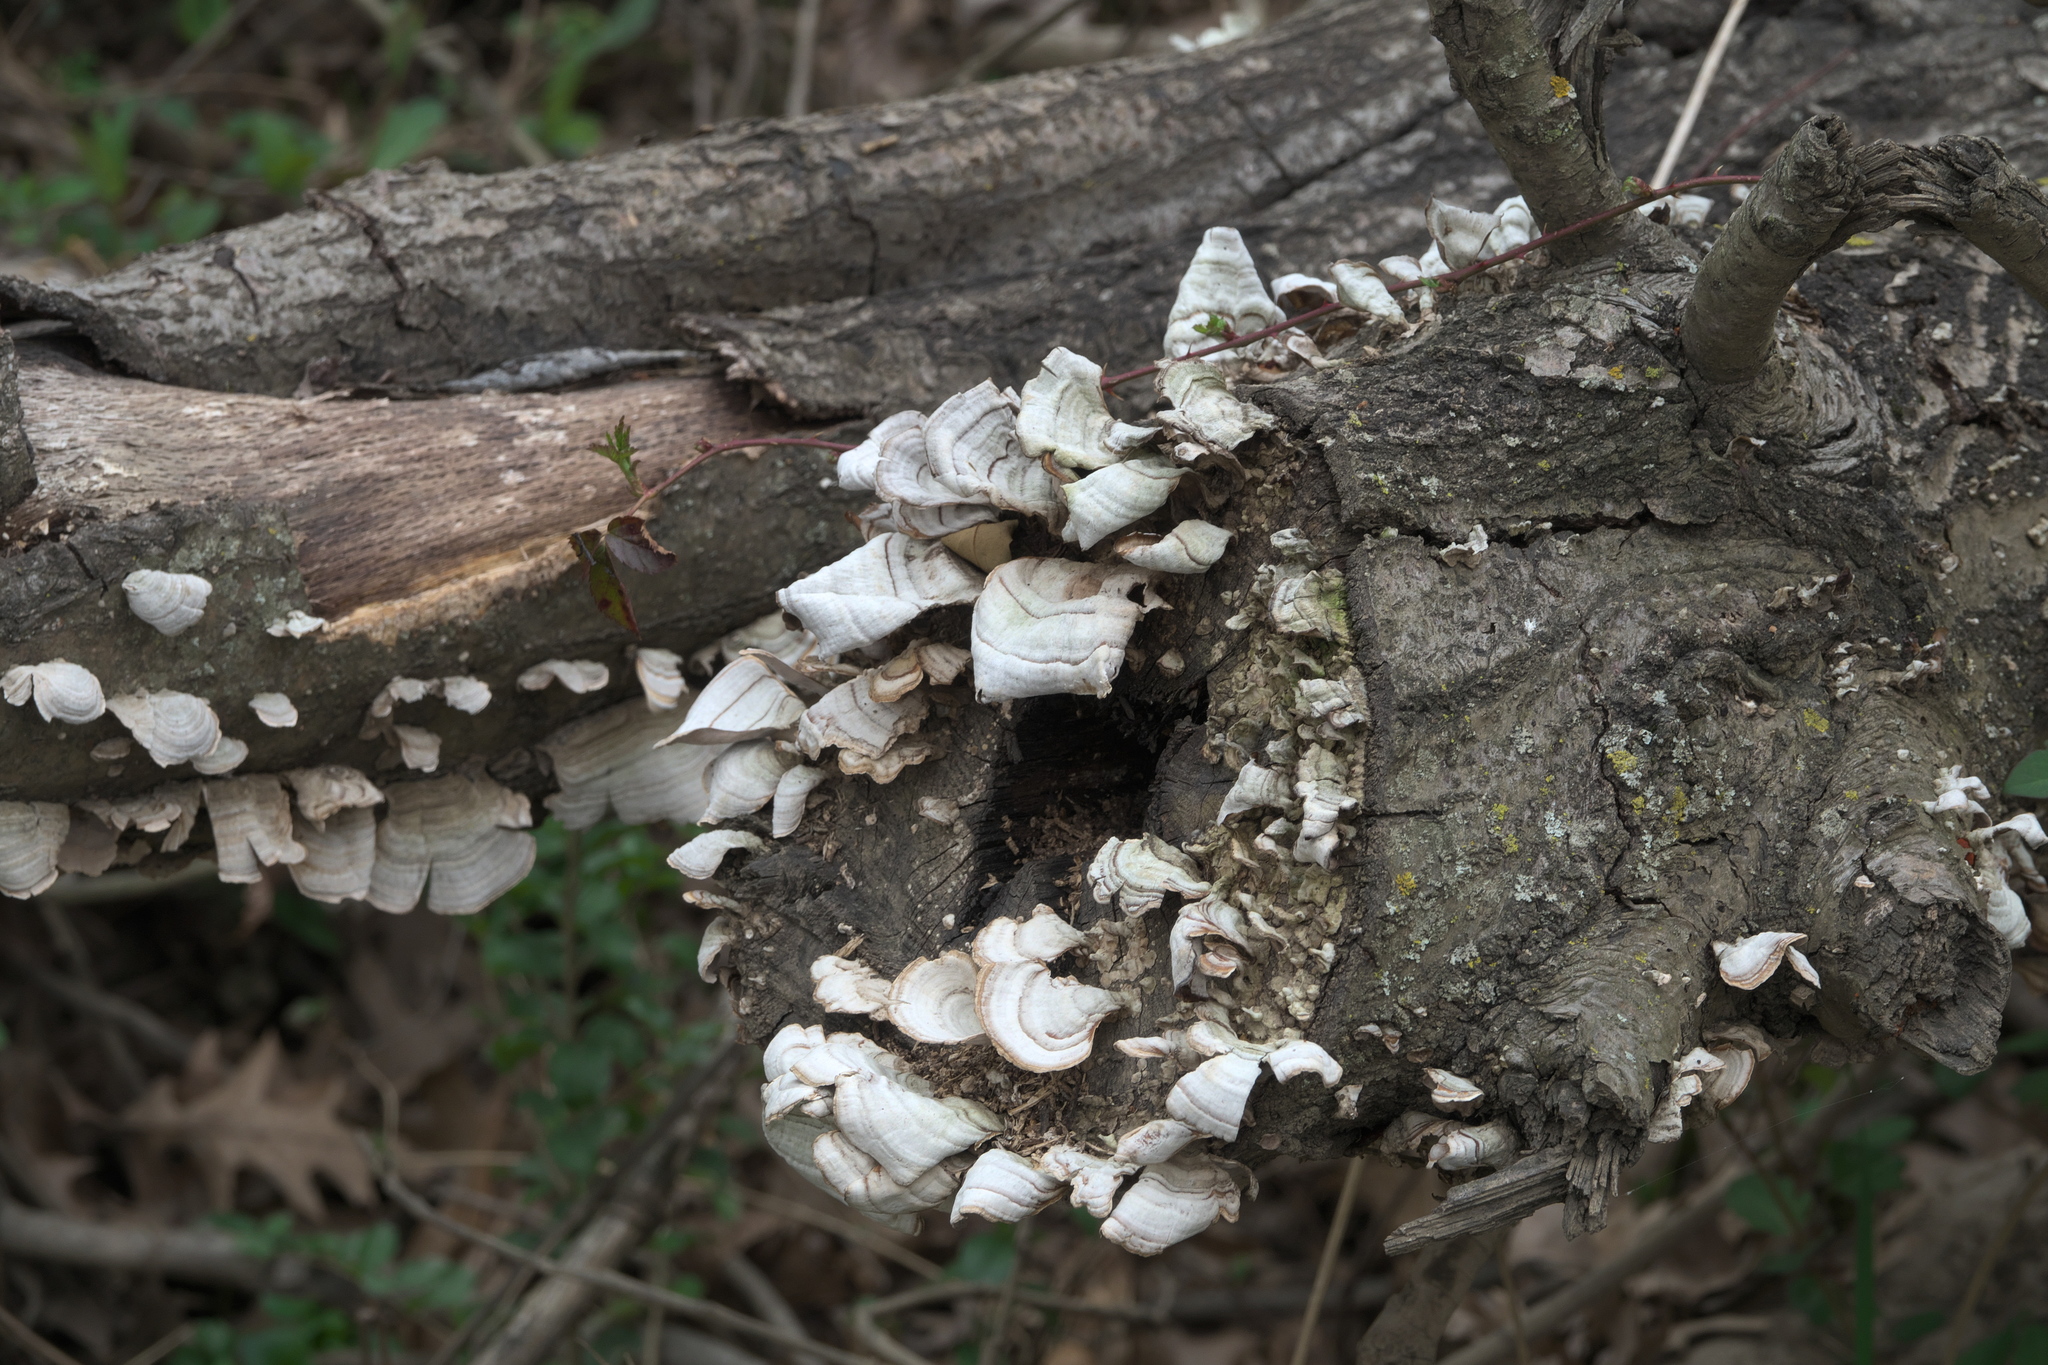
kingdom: Fungi
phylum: Basidiomycota
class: Agaricomycetes
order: Russulales
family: Stereaceae
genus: Stereum
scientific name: Stereum ostrea
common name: False turkeytail
